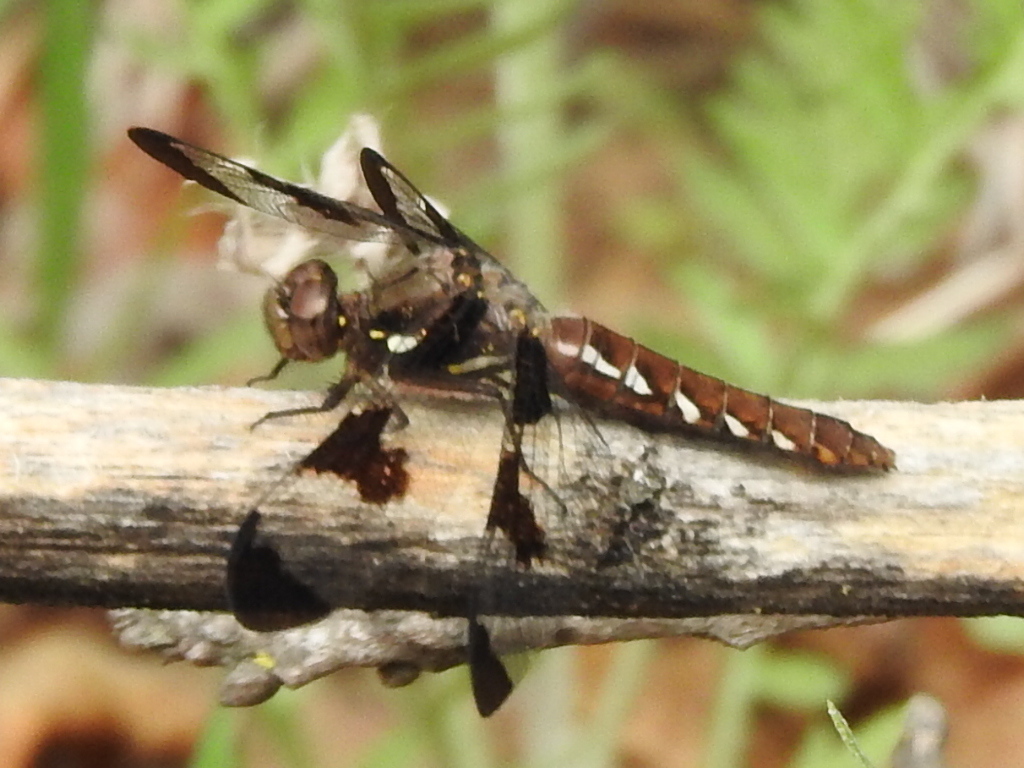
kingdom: Animalia
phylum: Arthropoda
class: Insecta
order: Odonata
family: Libellulidae
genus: Plathemis
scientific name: Plathemis lydia
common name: Common whitetail
